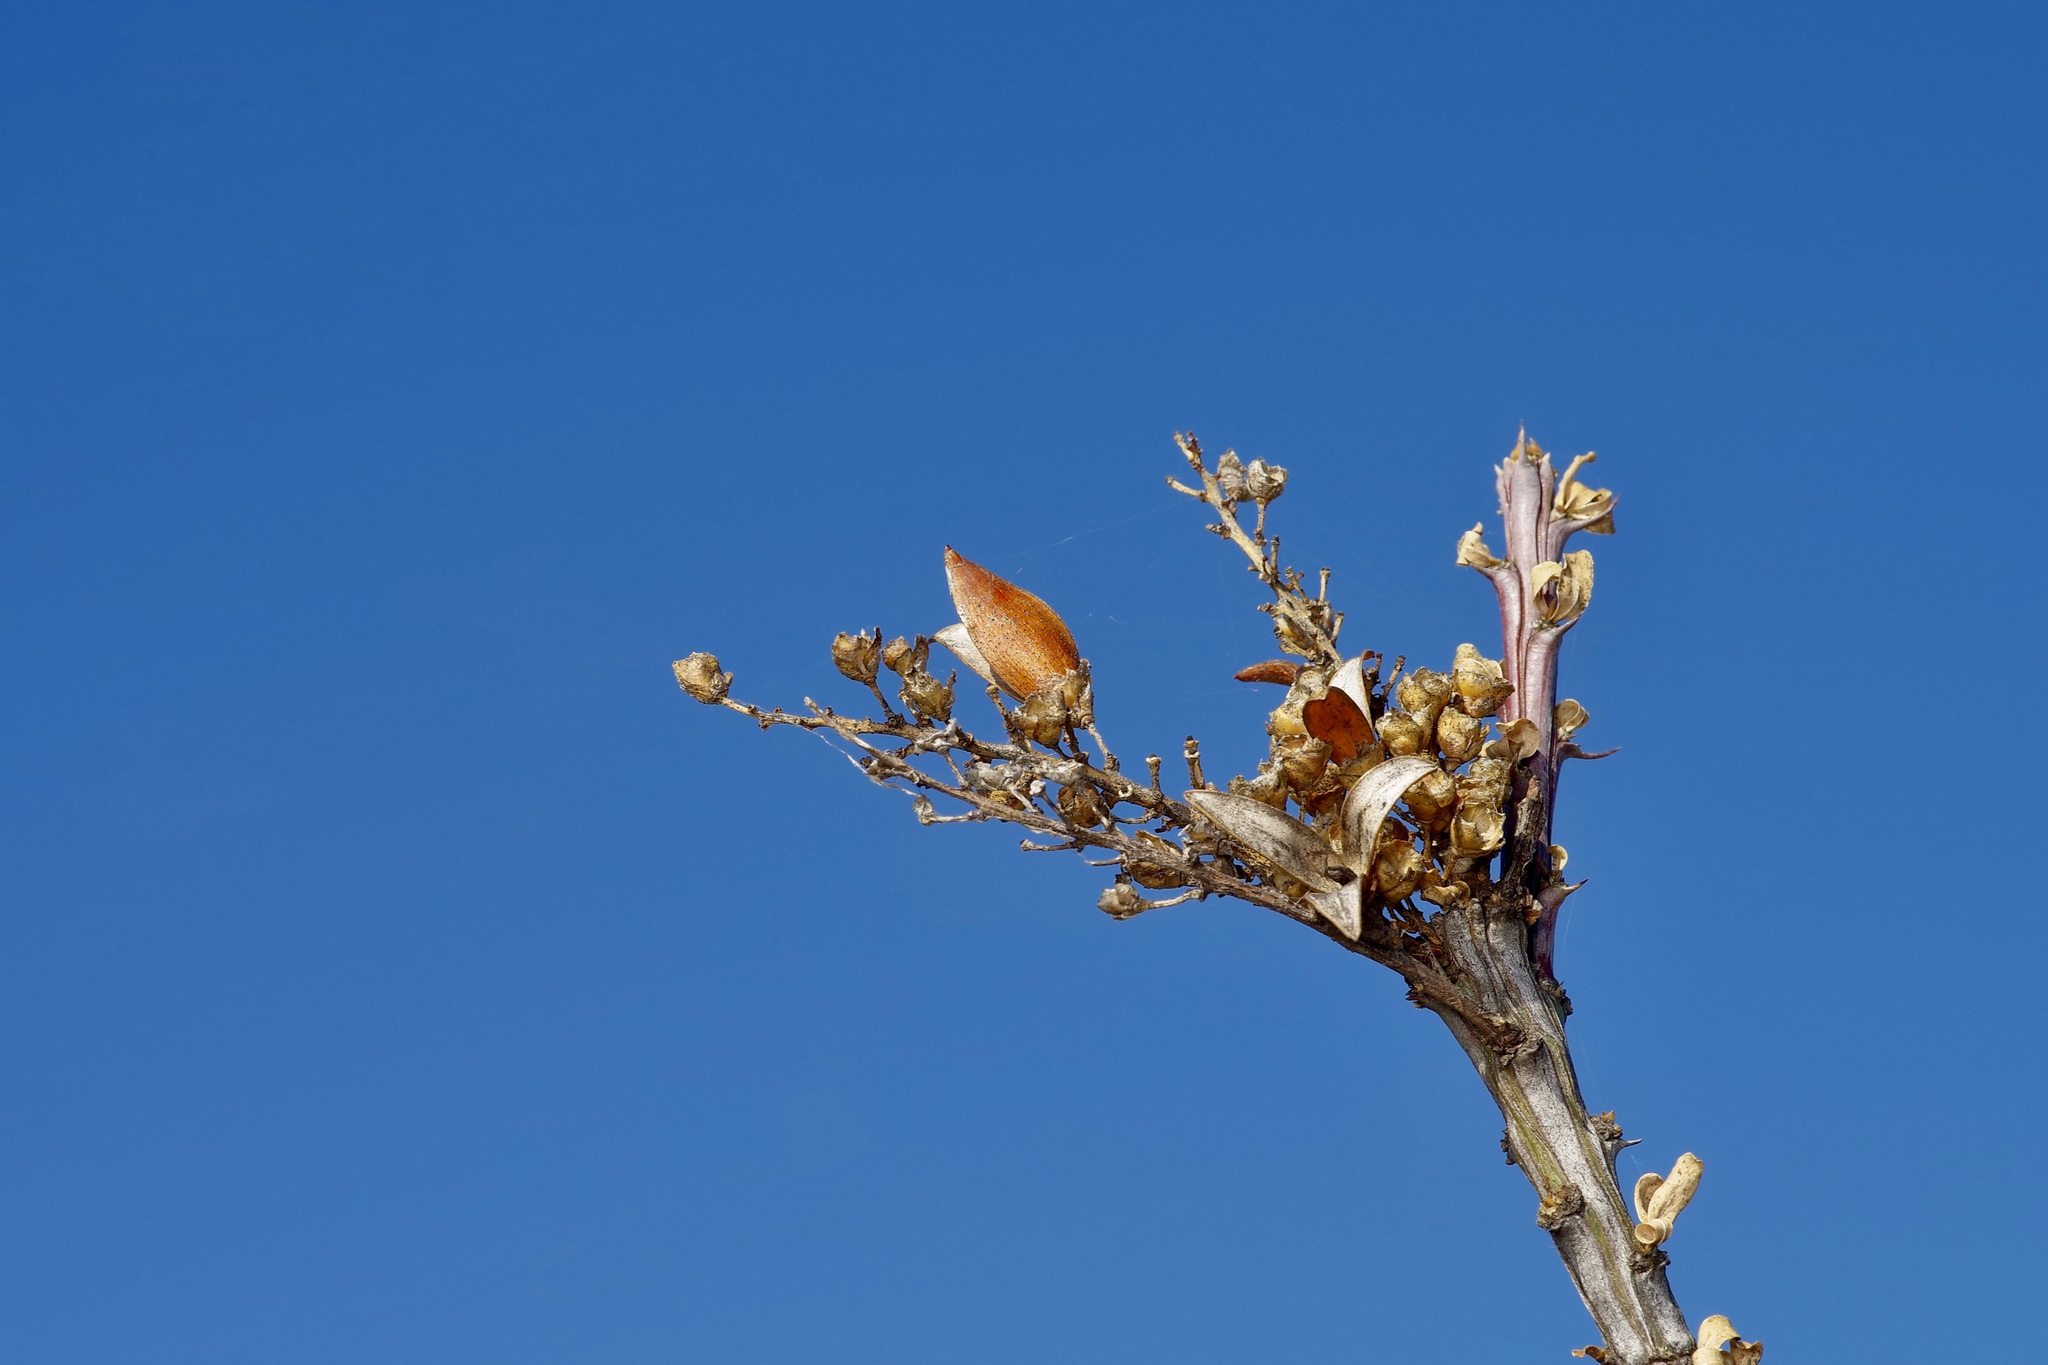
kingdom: Plantae
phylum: Tracheophyta
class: Magnoliopsida
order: Ericales
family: Fouquieriaceae
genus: Fouquieria
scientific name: Fouquieria splendens
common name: Vine-cactus
